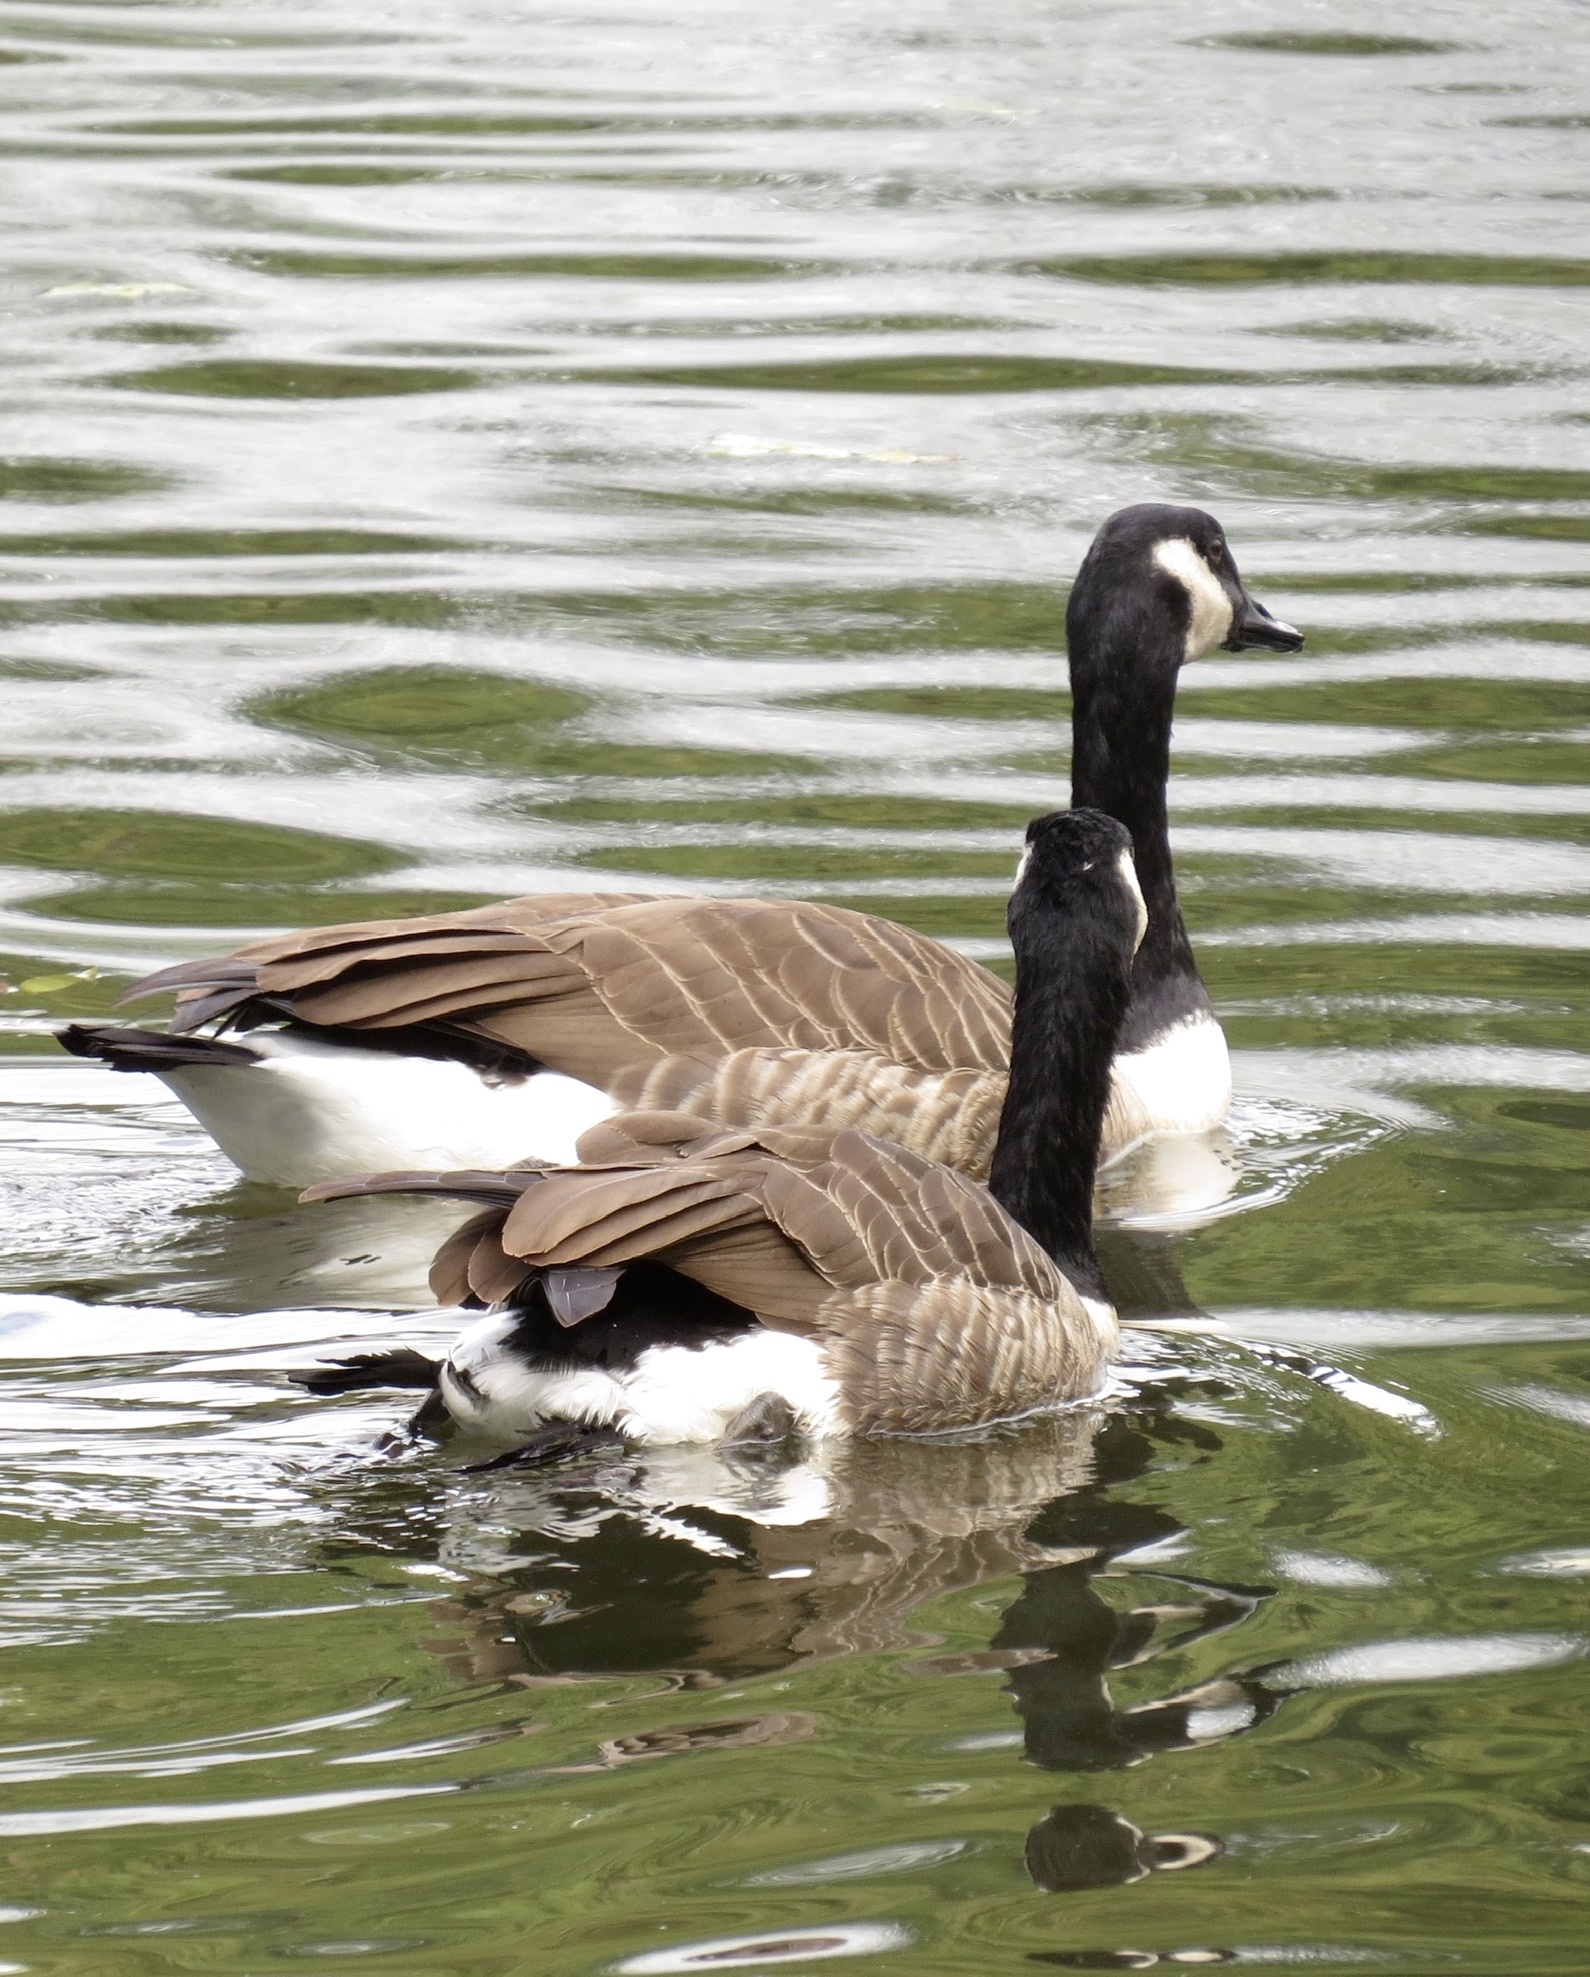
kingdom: Animalia
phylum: Chordata
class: Aves
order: Anseriformes
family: Anatidae
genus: Branta
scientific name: Branta canadensis
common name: Canada goose
